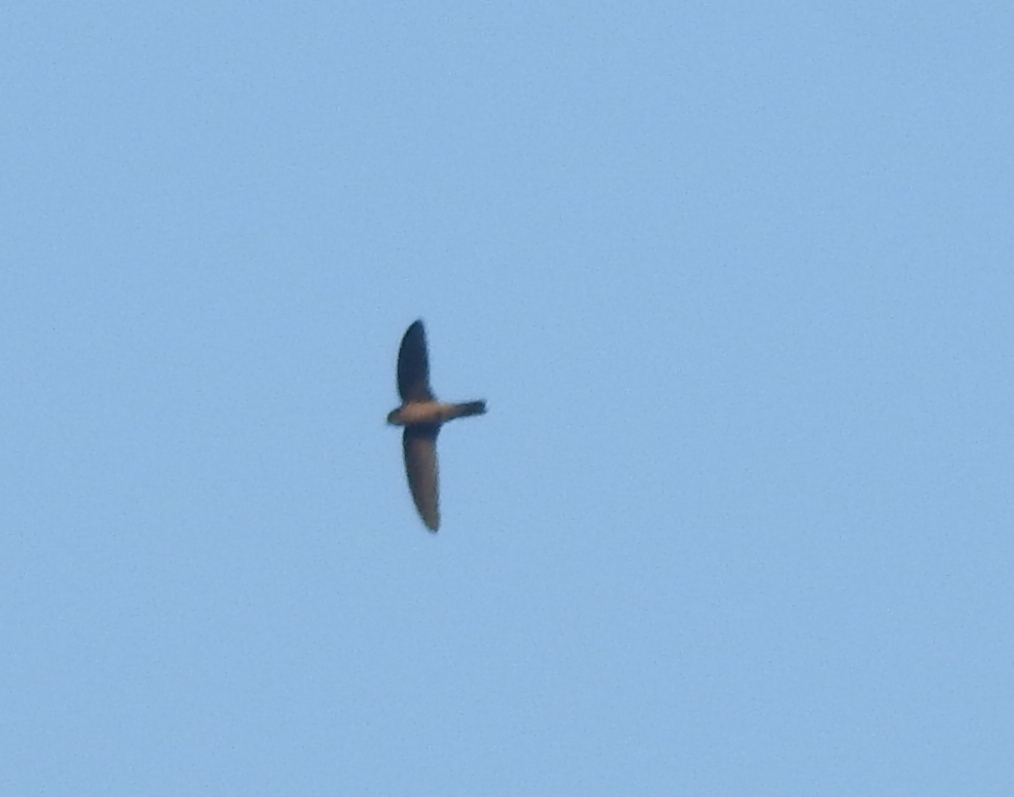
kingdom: Animalia
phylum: Chordata
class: Aves
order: Apodiformes
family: Apodidae
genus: Aerodramus
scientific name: Aerodramus
